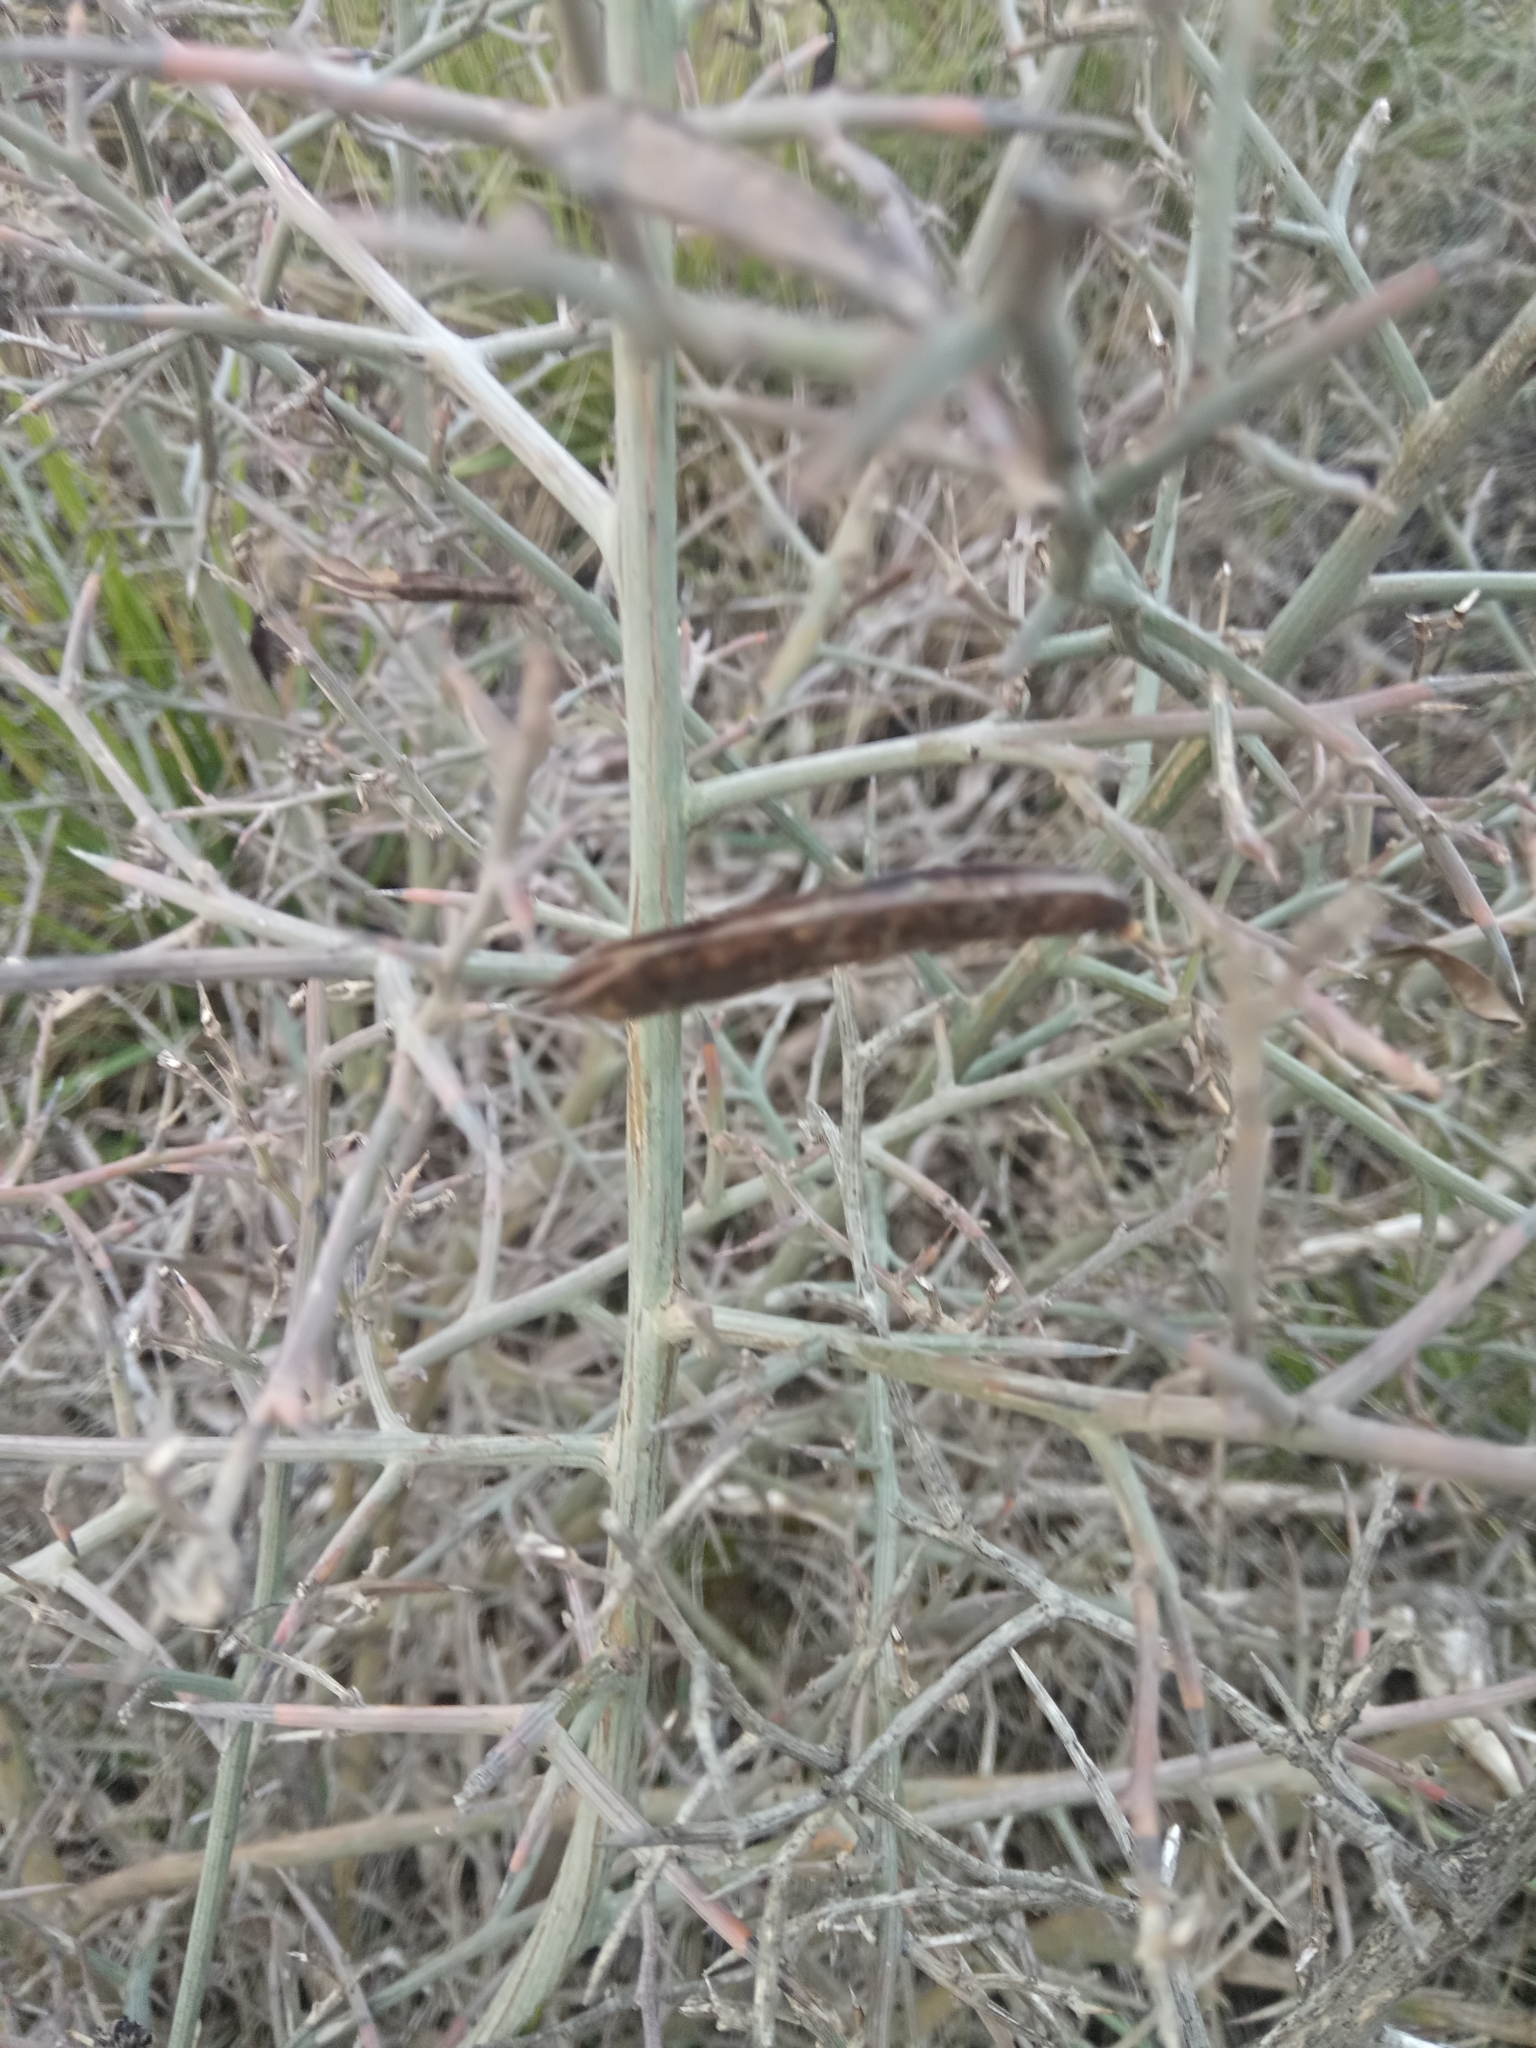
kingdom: Plantae
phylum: Tracheophyta
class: Magnoliopsida
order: Fabales
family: Fabaceae
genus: Calicotome
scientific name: Calicotome spinosa
